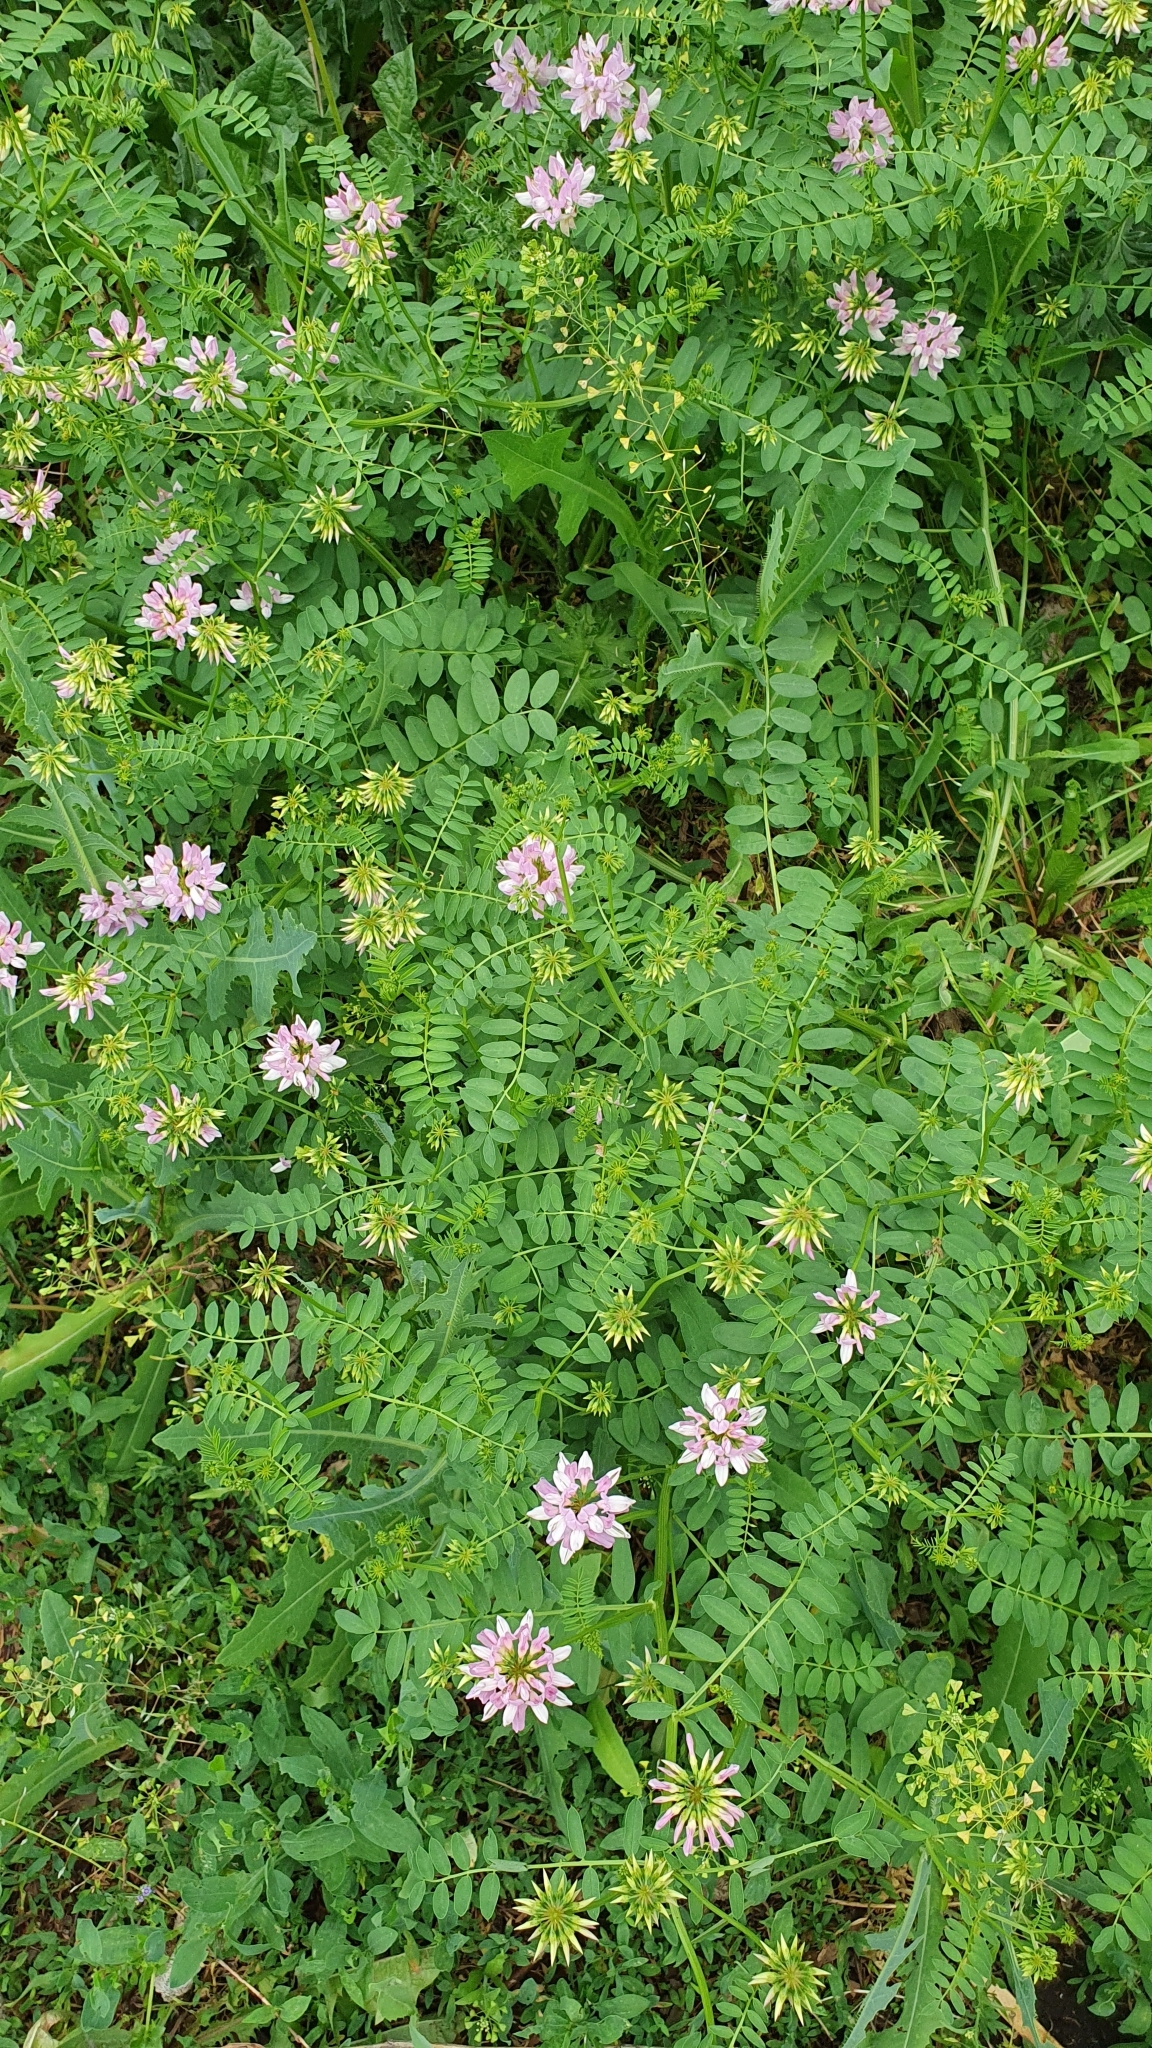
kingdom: Plantae
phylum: Tracheophyta
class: Magnoliopsida
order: Fabales
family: Fabaceae
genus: Coronilla
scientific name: Coronilla varia
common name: Crownvetch
